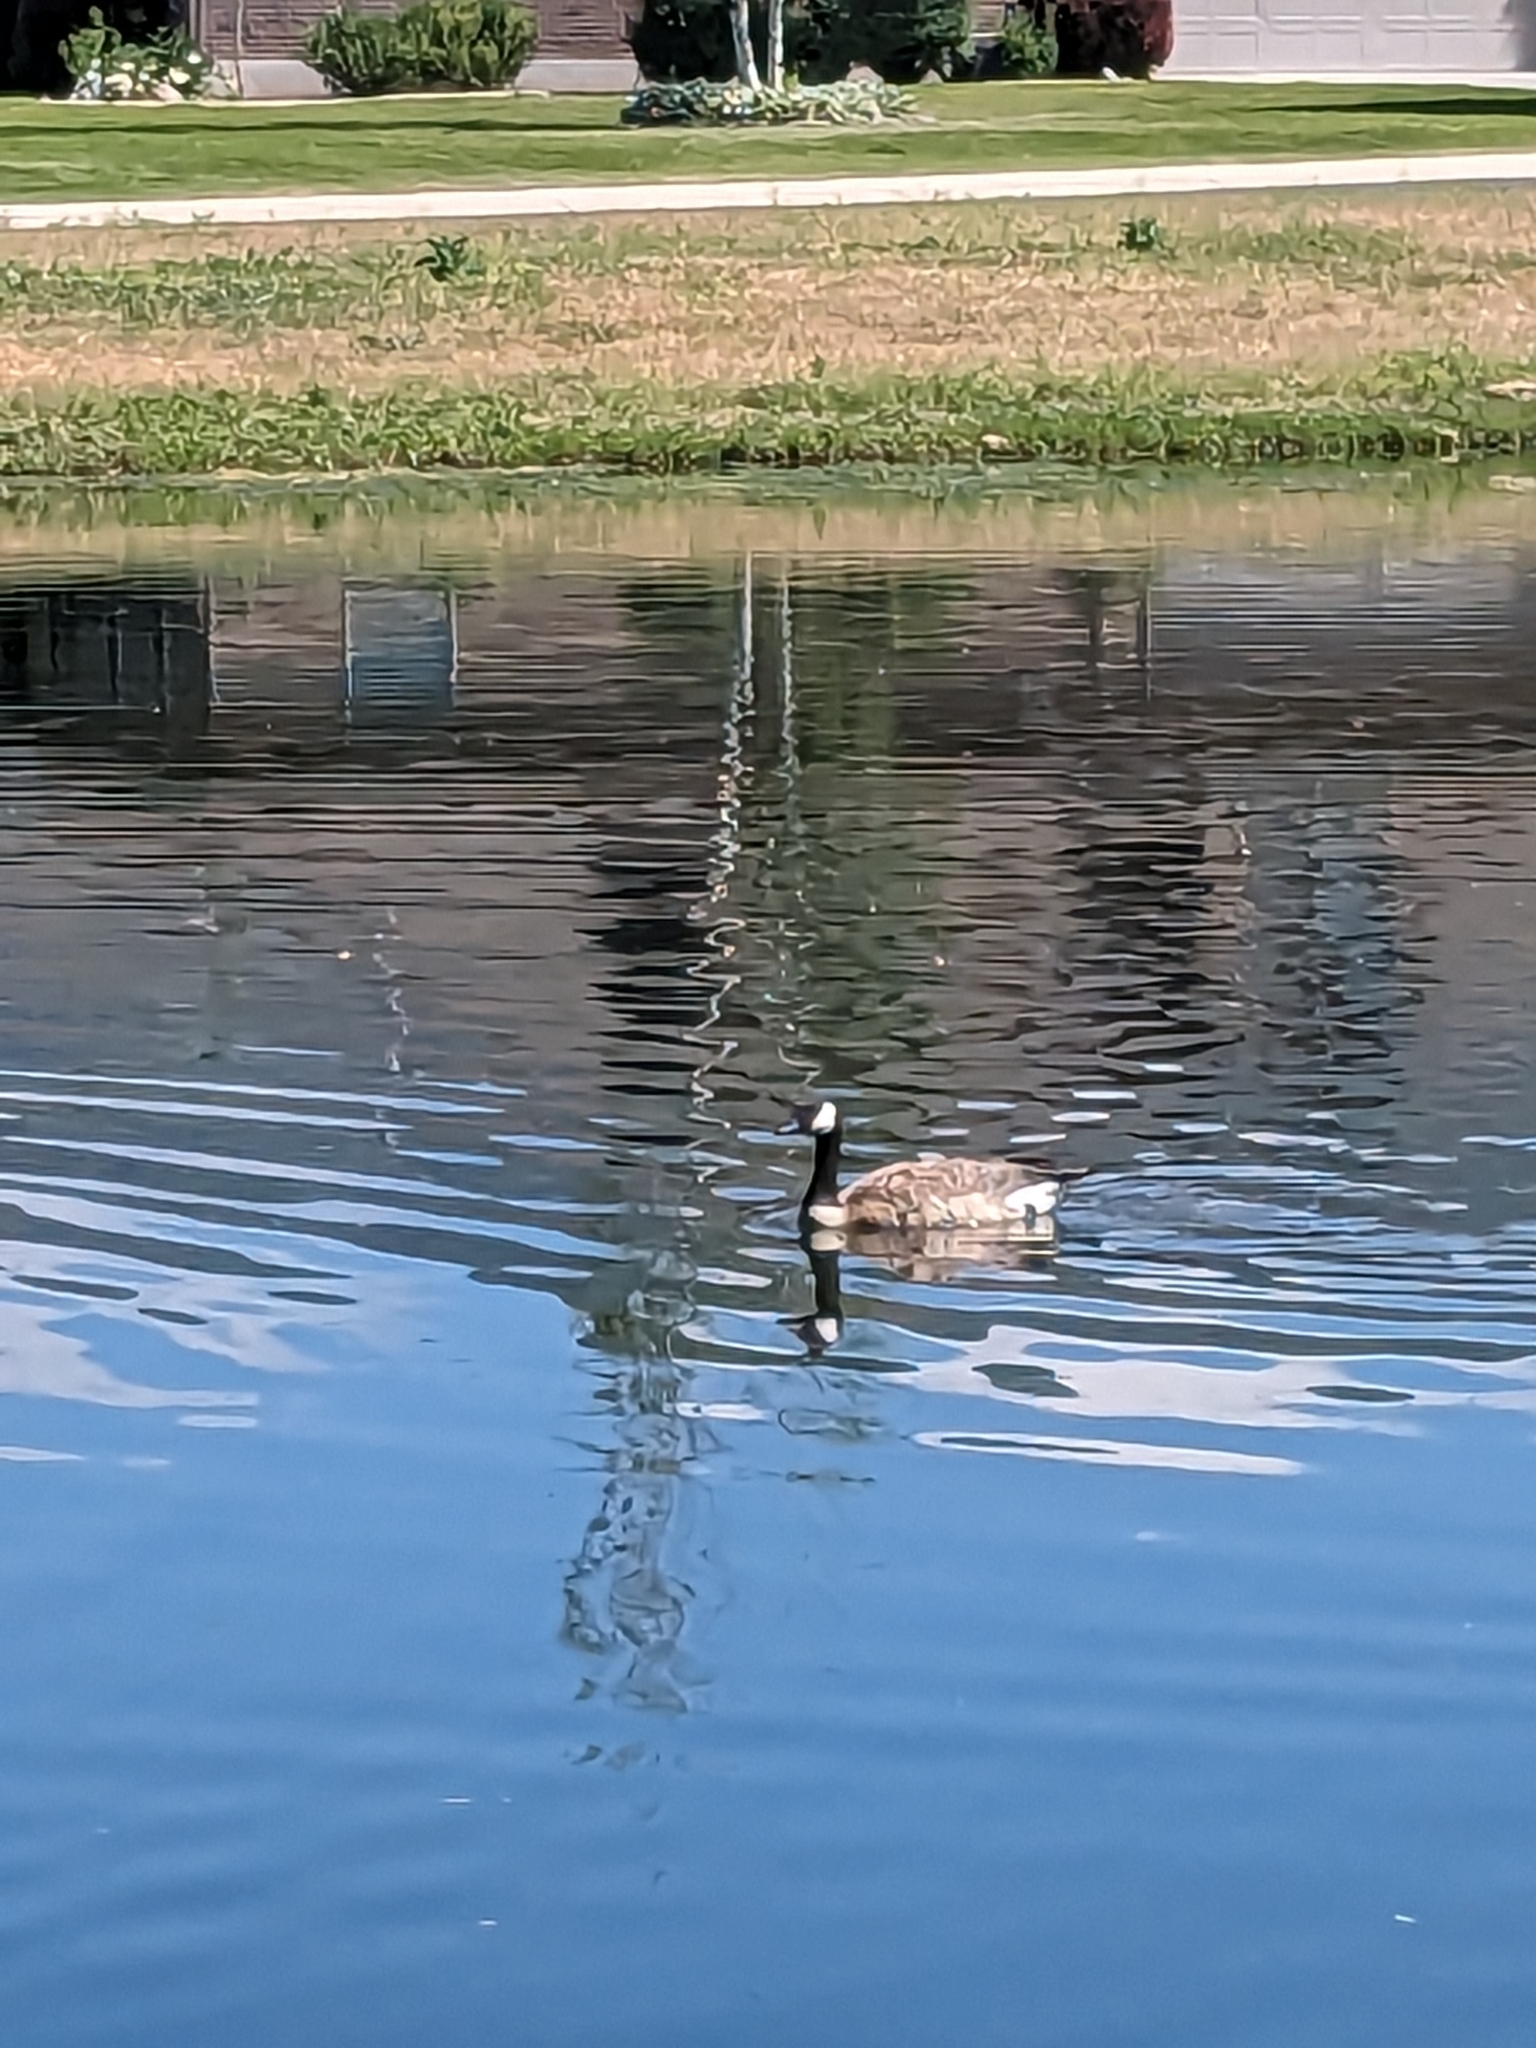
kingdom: Animalia
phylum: Chordata
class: Aves
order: Anseriformes
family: Anatidae
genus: Branta
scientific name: Branta canadensis
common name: Canada goose
